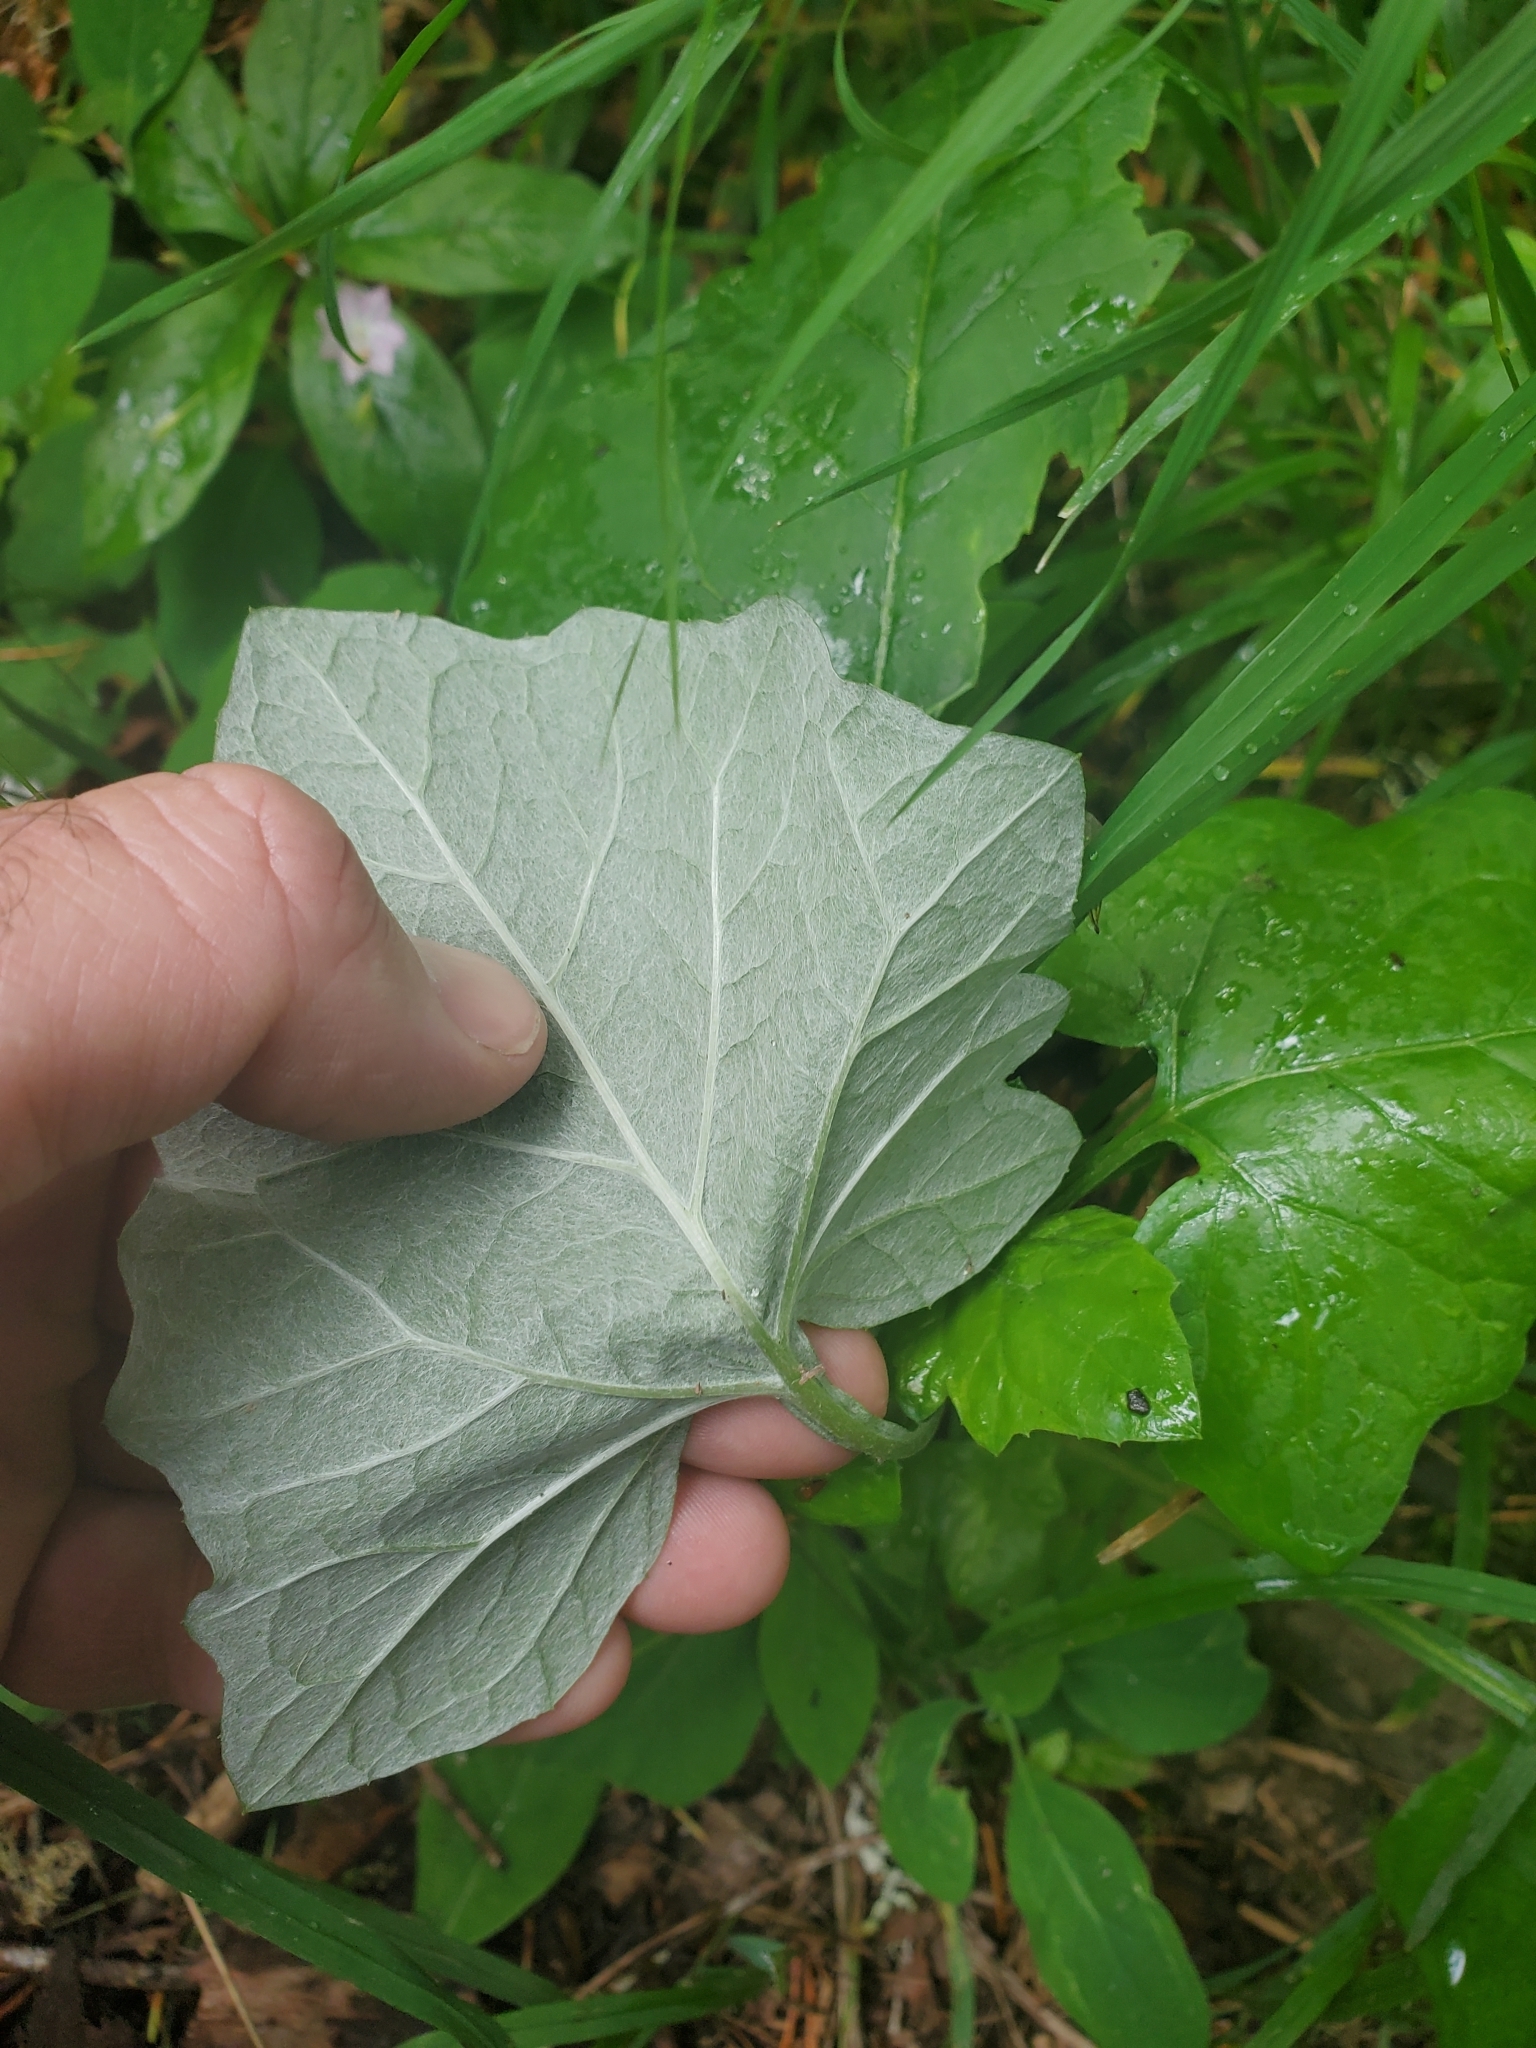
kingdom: Plantae
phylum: Tracheophyta
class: Magnoliopsida
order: Asterales
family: Asteraceae
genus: Adenocaulon
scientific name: Adenocaulon bicolor
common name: Trailplant
